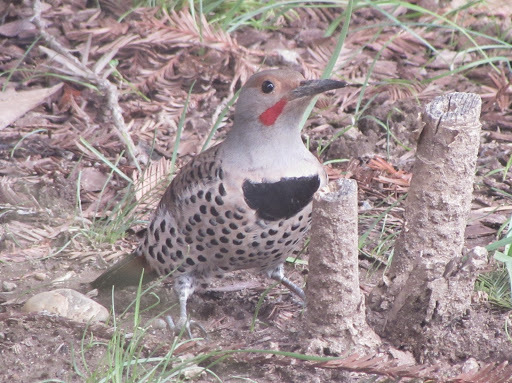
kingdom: Animalia
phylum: Chordata
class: Aves
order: Piciformes
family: Picidae
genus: Colaptes
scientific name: Colaptes auratus
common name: Northern flicker
